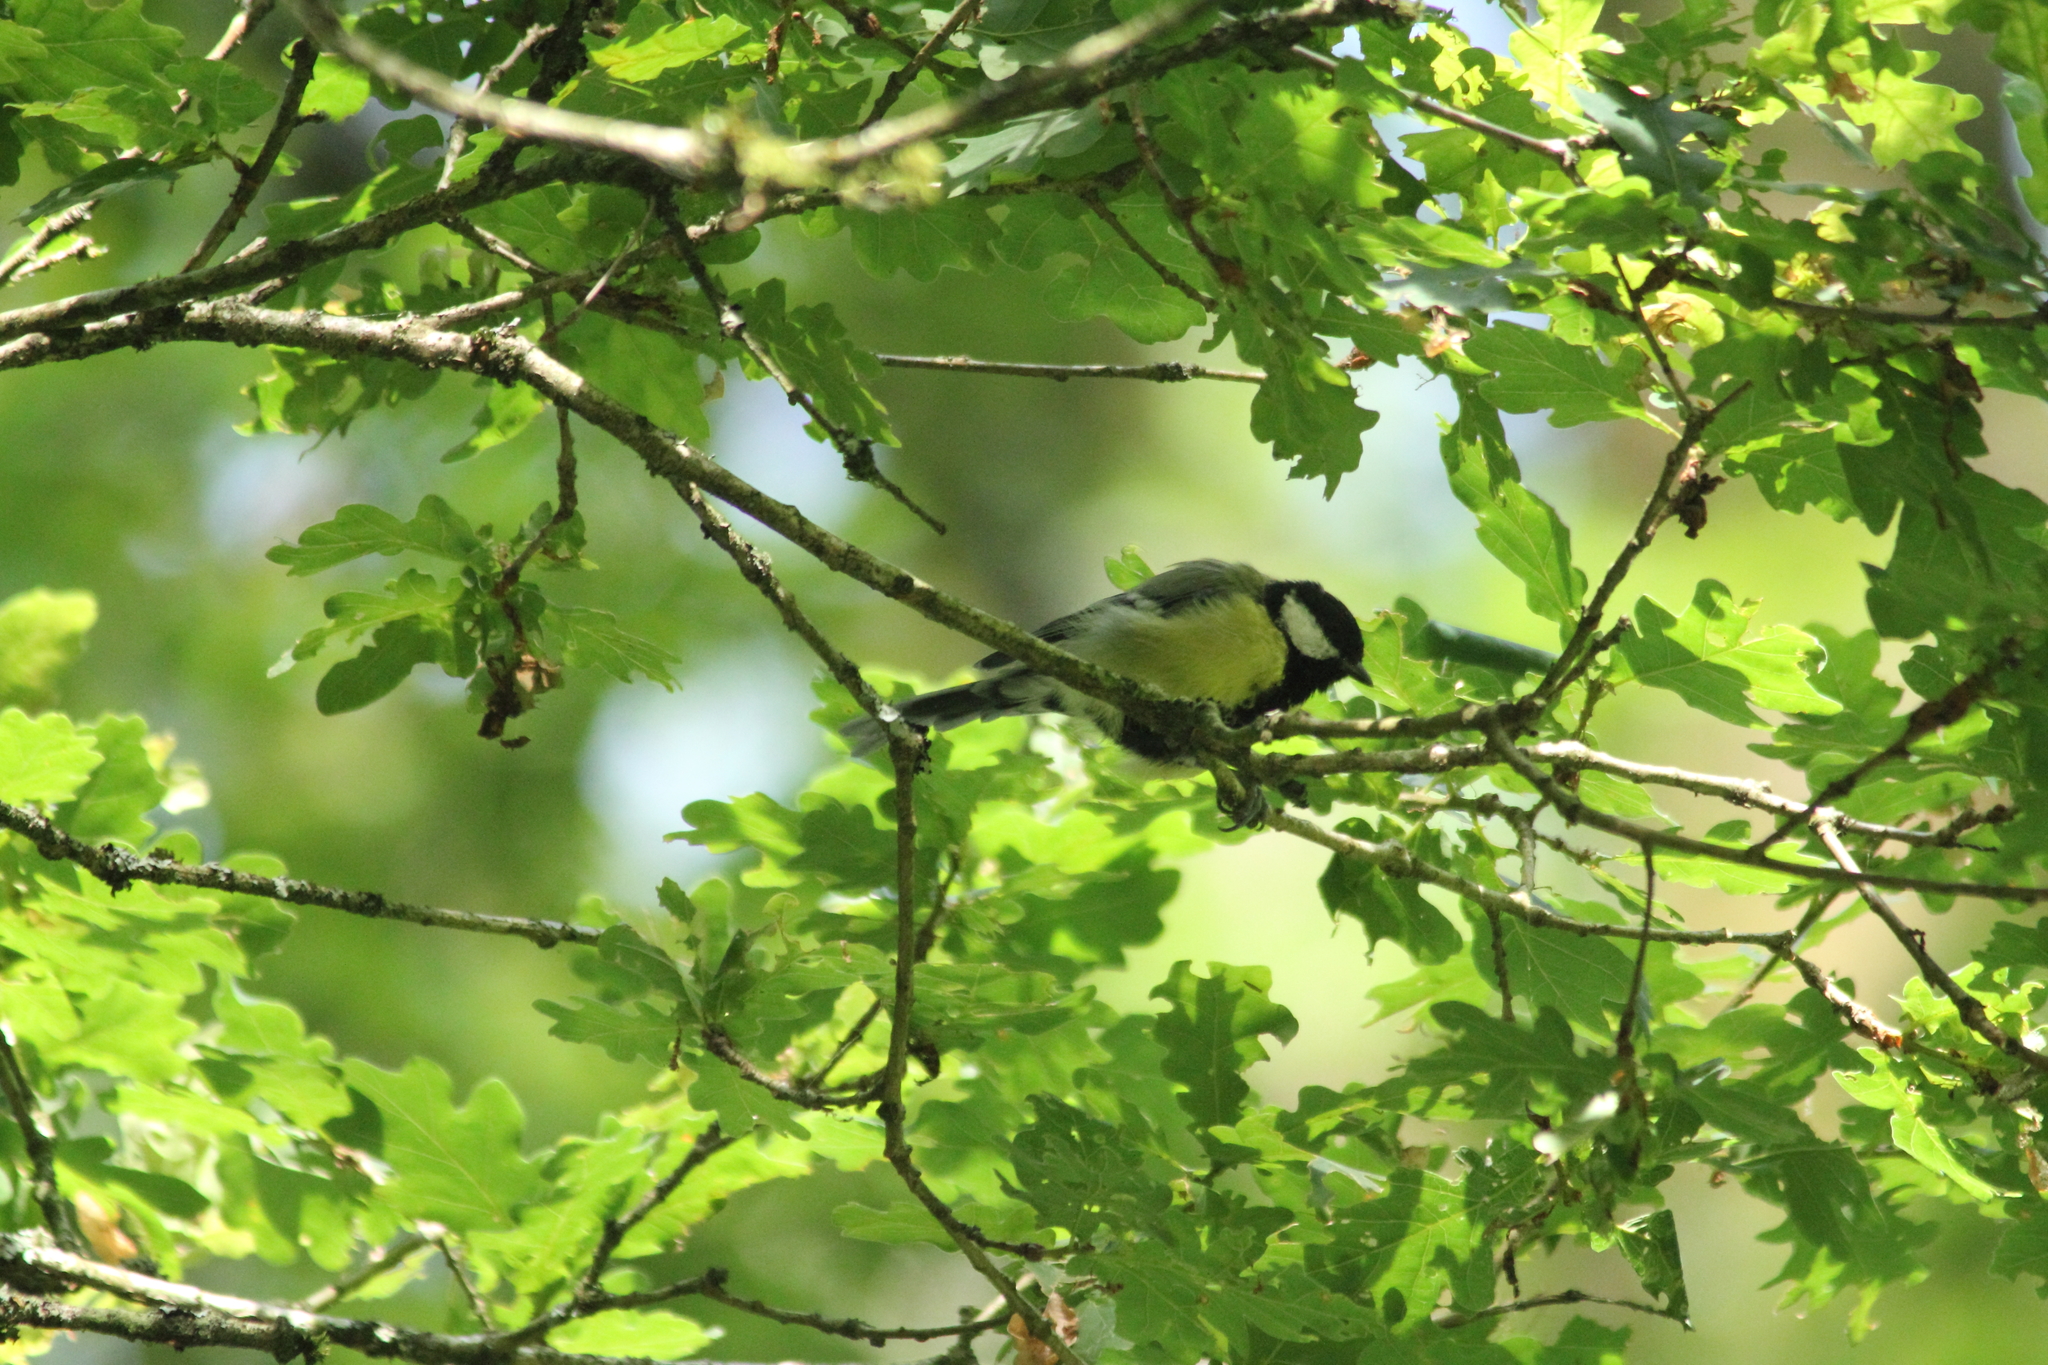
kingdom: Animalia
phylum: Chordata
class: Aves
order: Passeriformes
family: Paridae
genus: Parus
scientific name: Parus major
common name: Great tit
